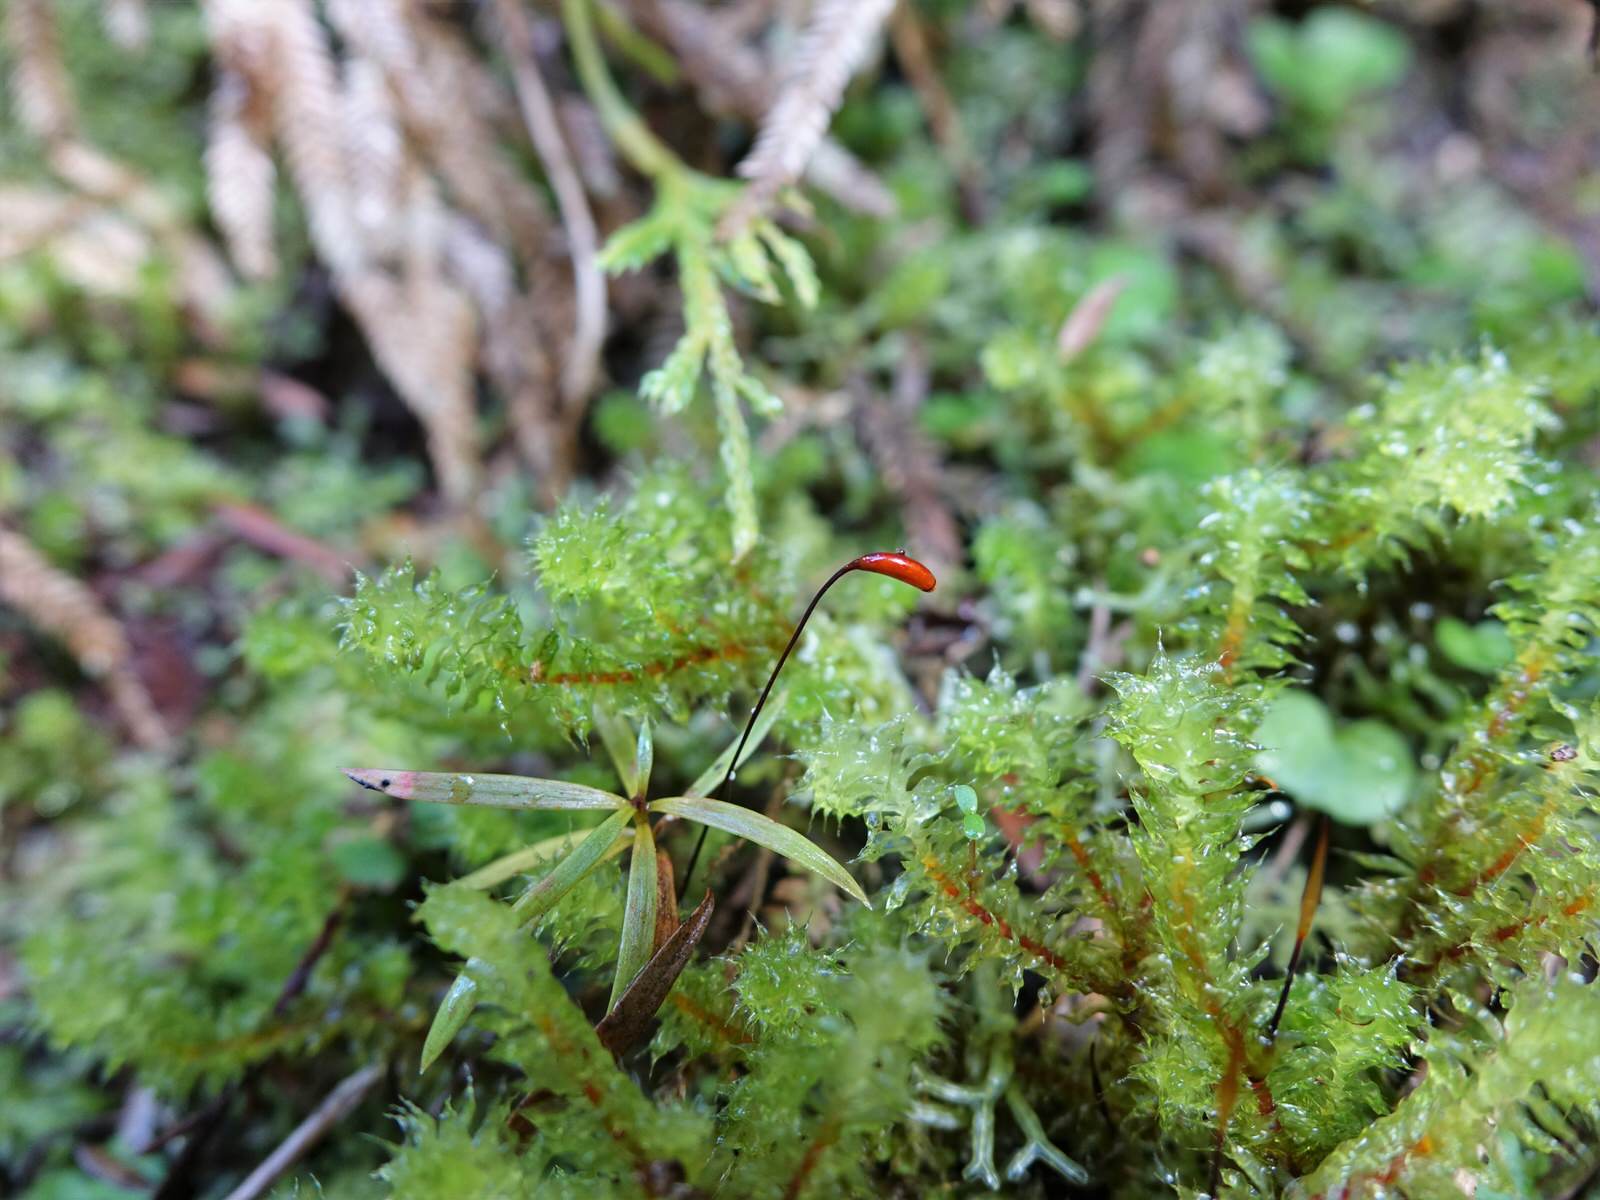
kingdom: Plantae
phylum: Bryophyta
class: Bryopsida
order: Ptychomniales
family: Ptychomniaceae
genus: Ptychomnion
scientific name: Ptychomnion aciculare
